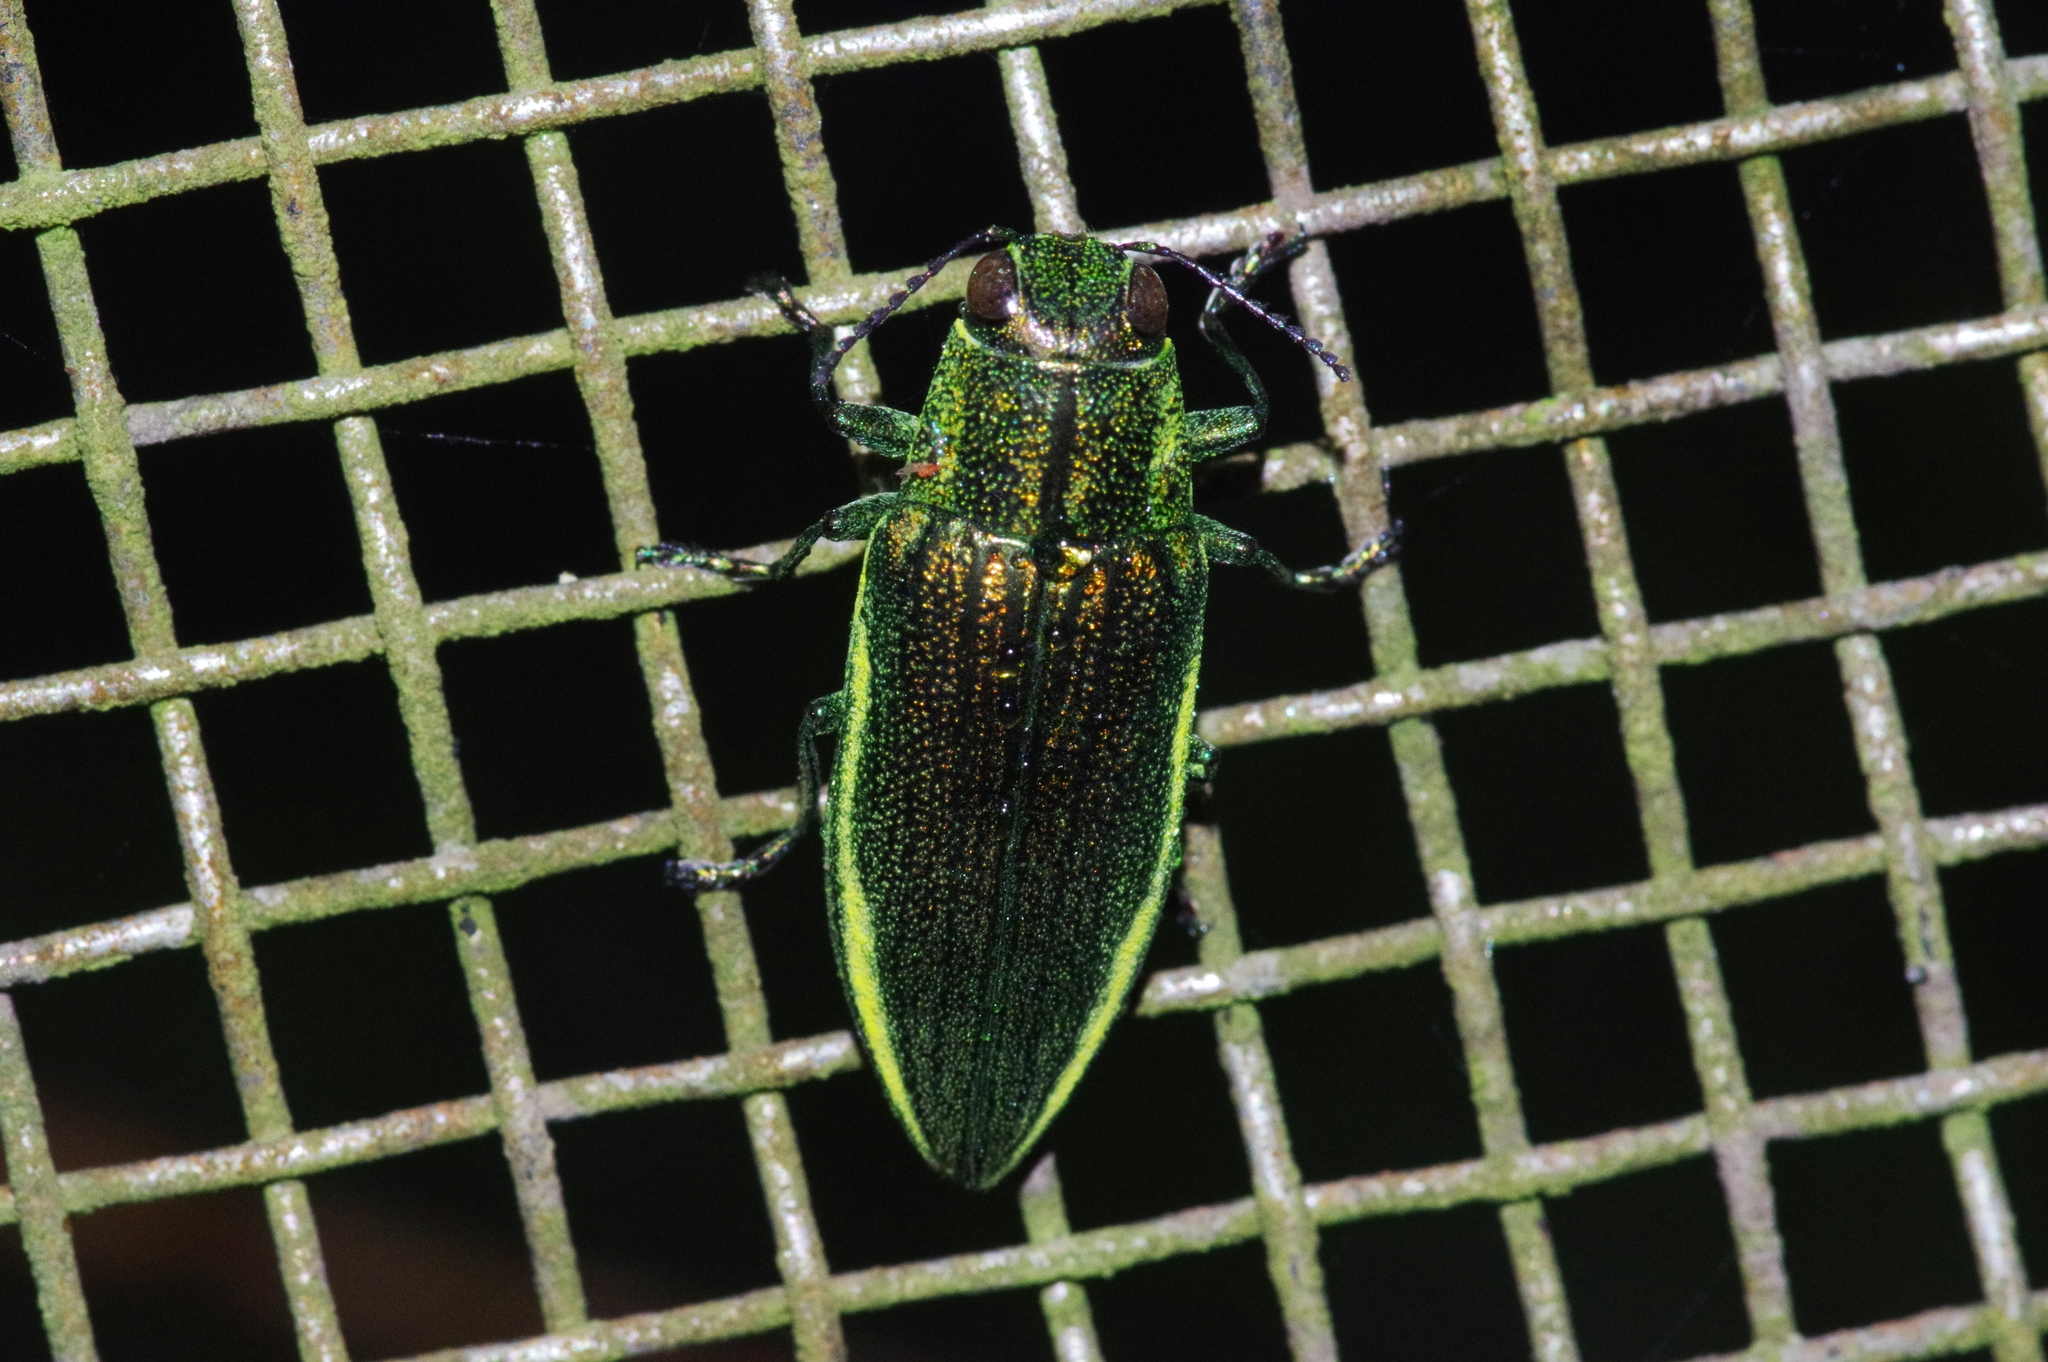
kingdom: Animalia
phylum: Arthropoda
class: Insecta
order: Coleoptera
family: Buprestidae
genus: Chrysodema
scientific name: Chrysodema lewisii
